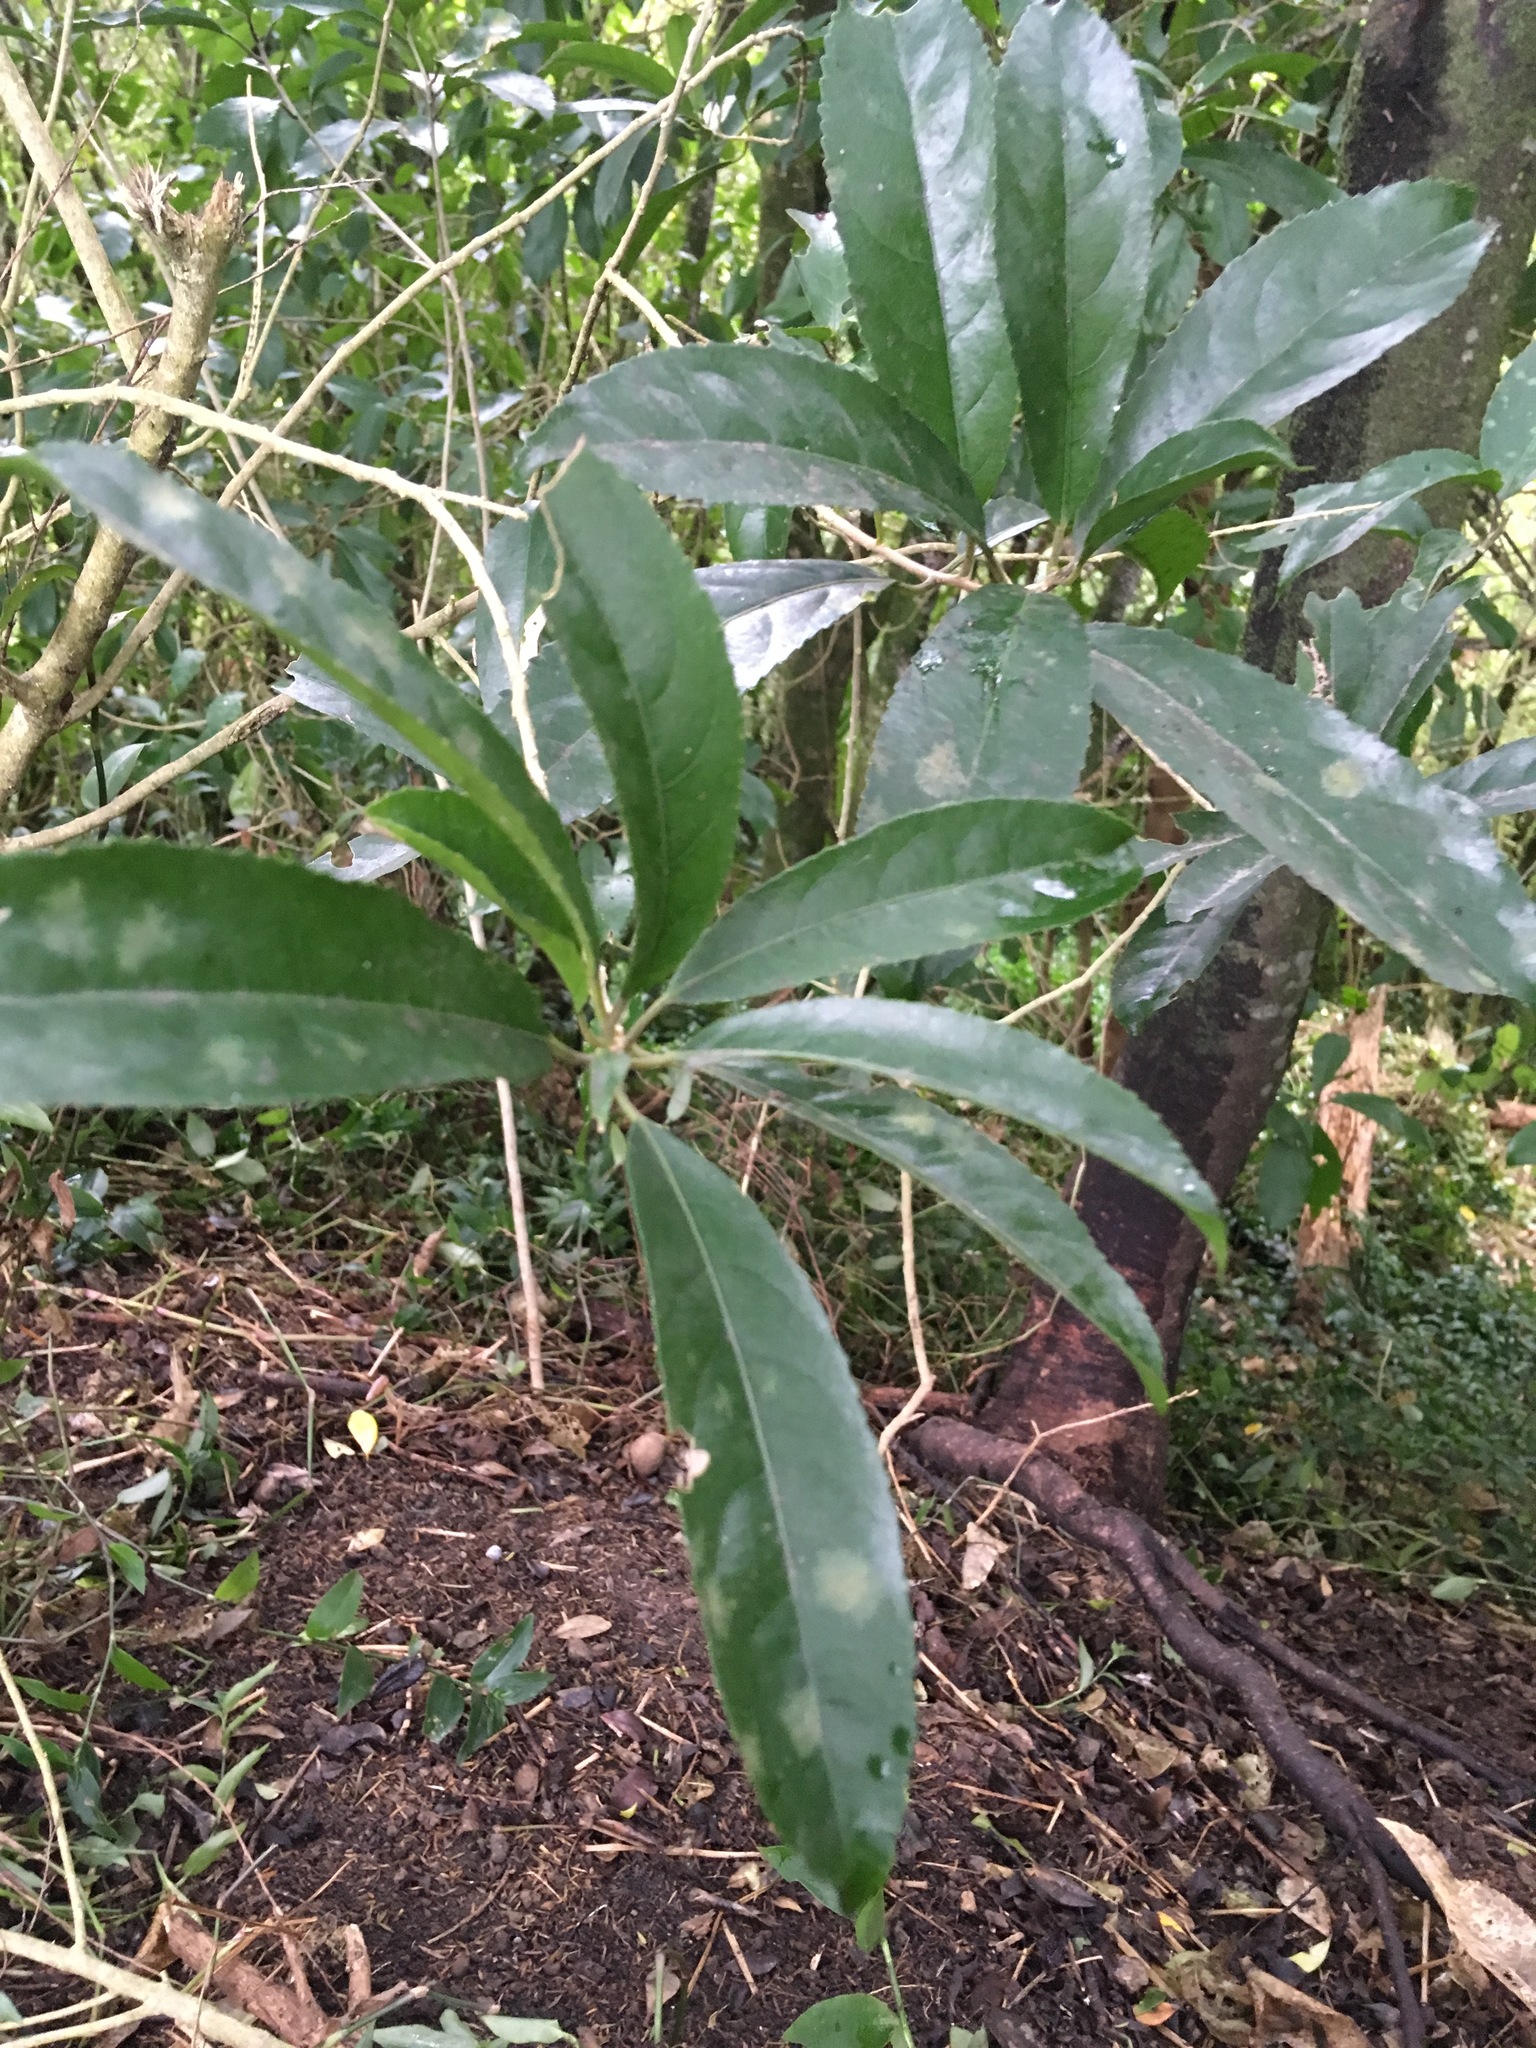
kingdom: Plantae
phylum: Tracheophyta
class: Magnoliopsida
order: Malpighiales
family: Violaceae
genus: Melicytus
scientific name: Melicytus ramiflorus
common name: Mahoe
